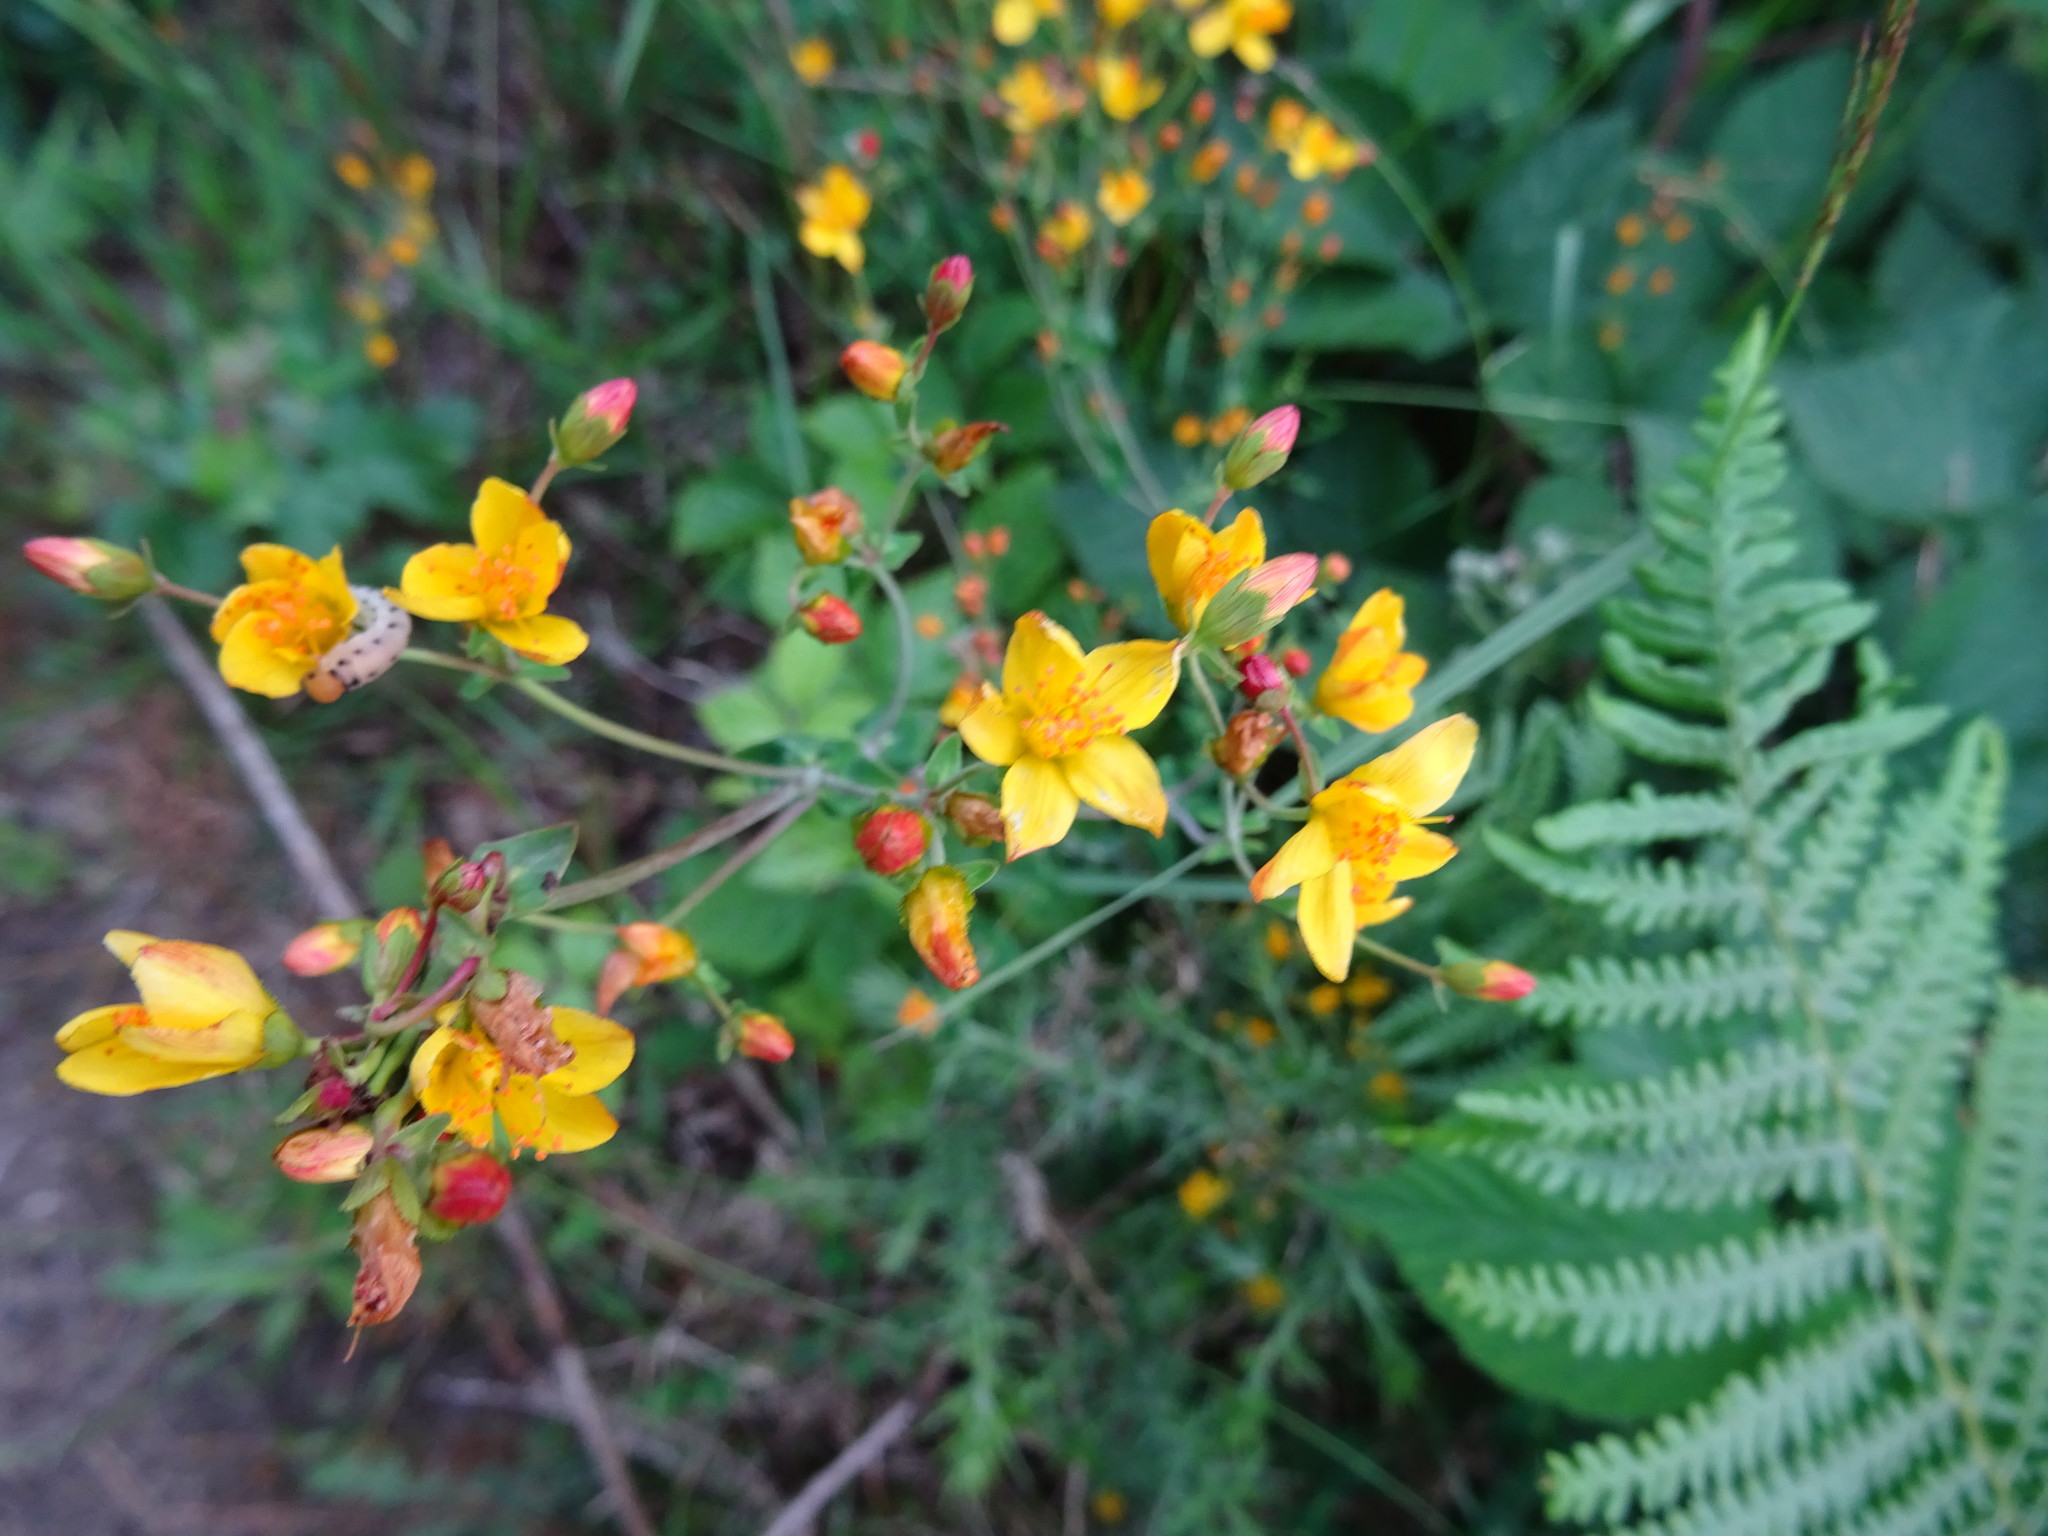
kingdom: Plantae
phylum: Tracheophyta
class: Magnoliopsida
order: Malpighiales
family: Hypericaceae
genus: Hypericum
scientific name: Hypericum pulchrum
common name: Slender st. john's-wort
